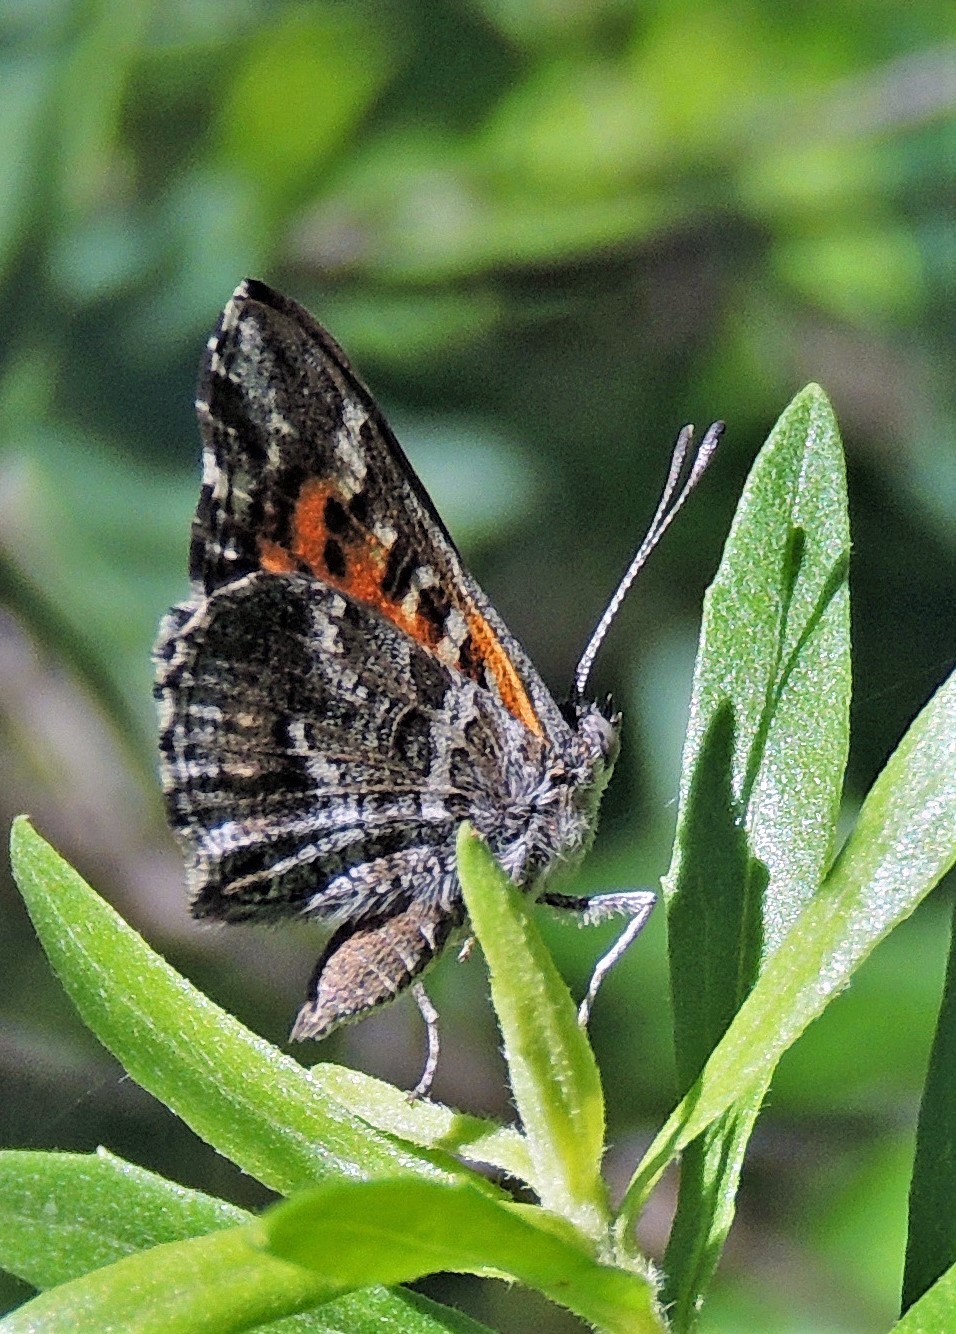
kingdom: Animalia
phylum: Arthropoda
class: Insecta
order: Lepidoptera
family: Lycaenidae
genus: Aricoris
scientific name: Aricoris chilensis
